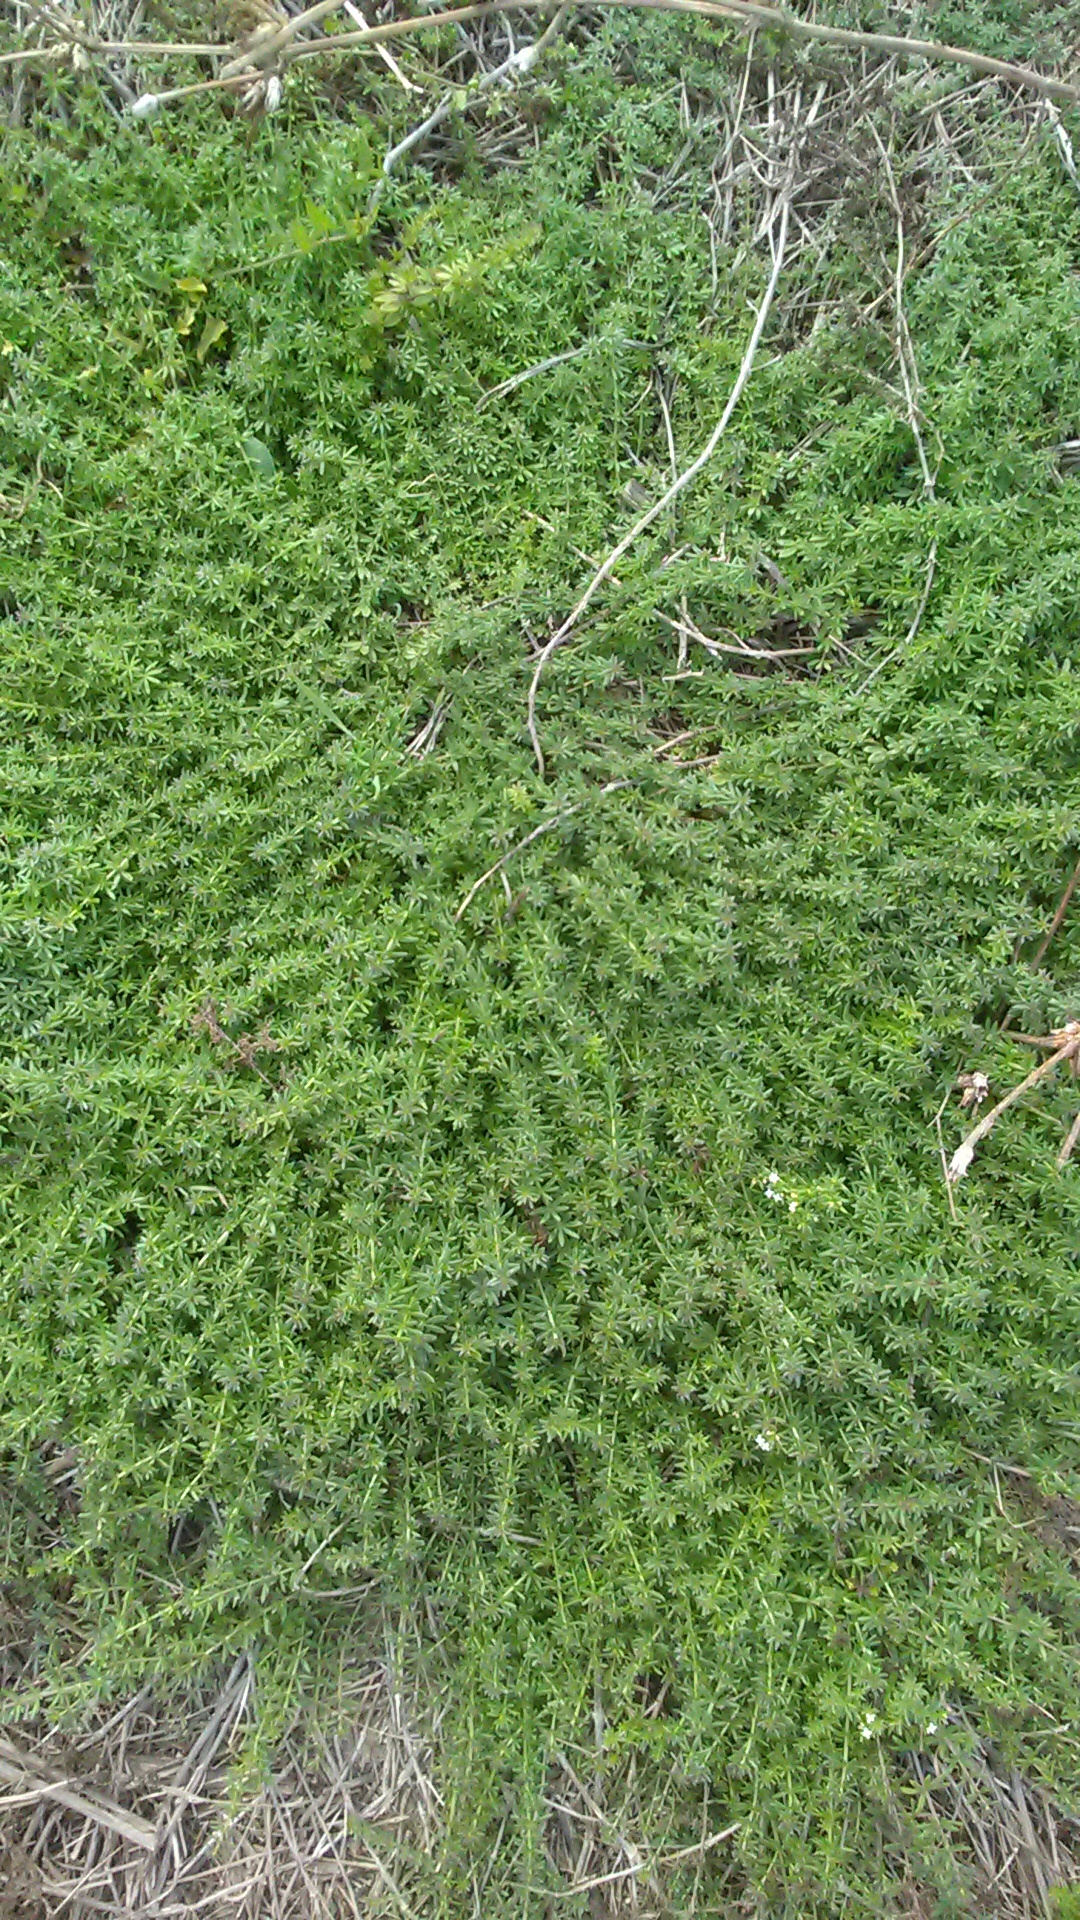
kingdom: Plantae
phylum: Tracheophyta
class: Magnoliopsida
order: Gentianales
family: Rubiaceae
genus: Galium
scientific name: Galium humifusum
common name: Spreading bedstraw
